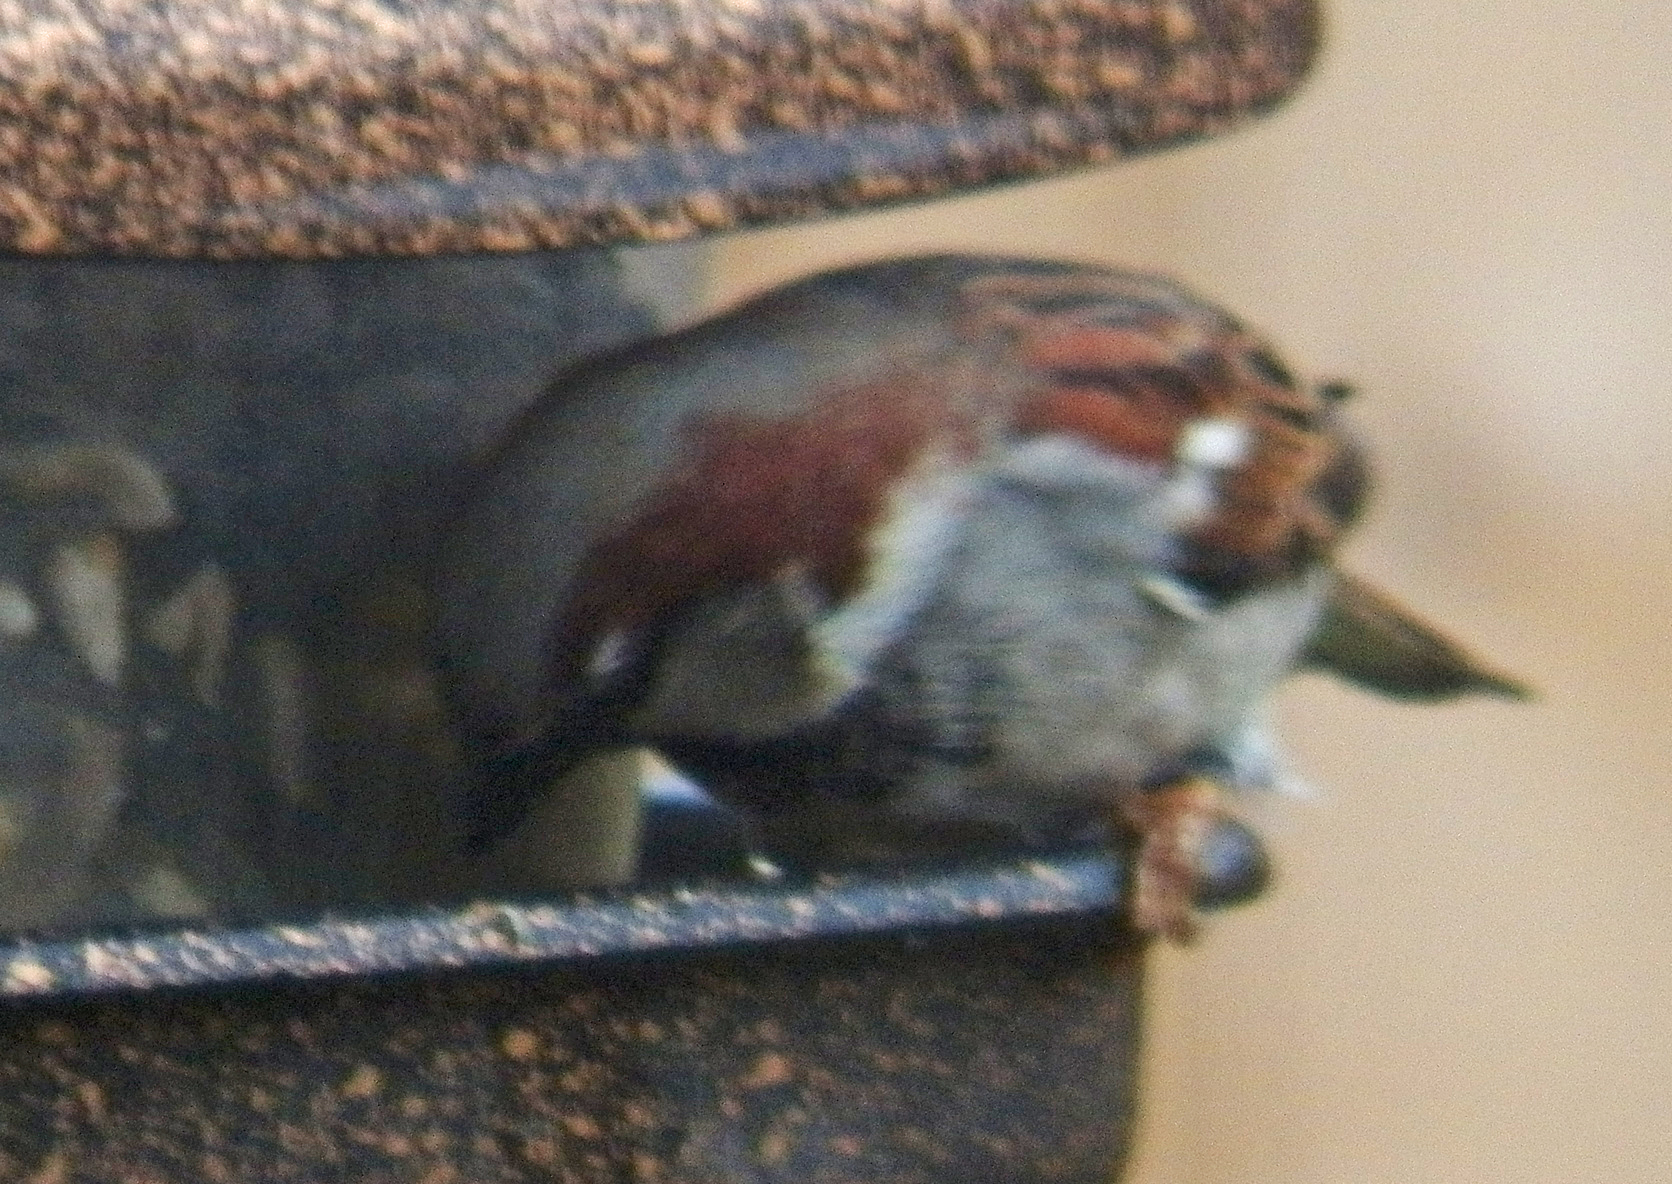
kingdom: Animalia
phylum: Chordata
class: Aves
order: Passeriformes
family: Passeridae
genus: Passer
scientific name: Passer domesticus
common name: House sparrow
